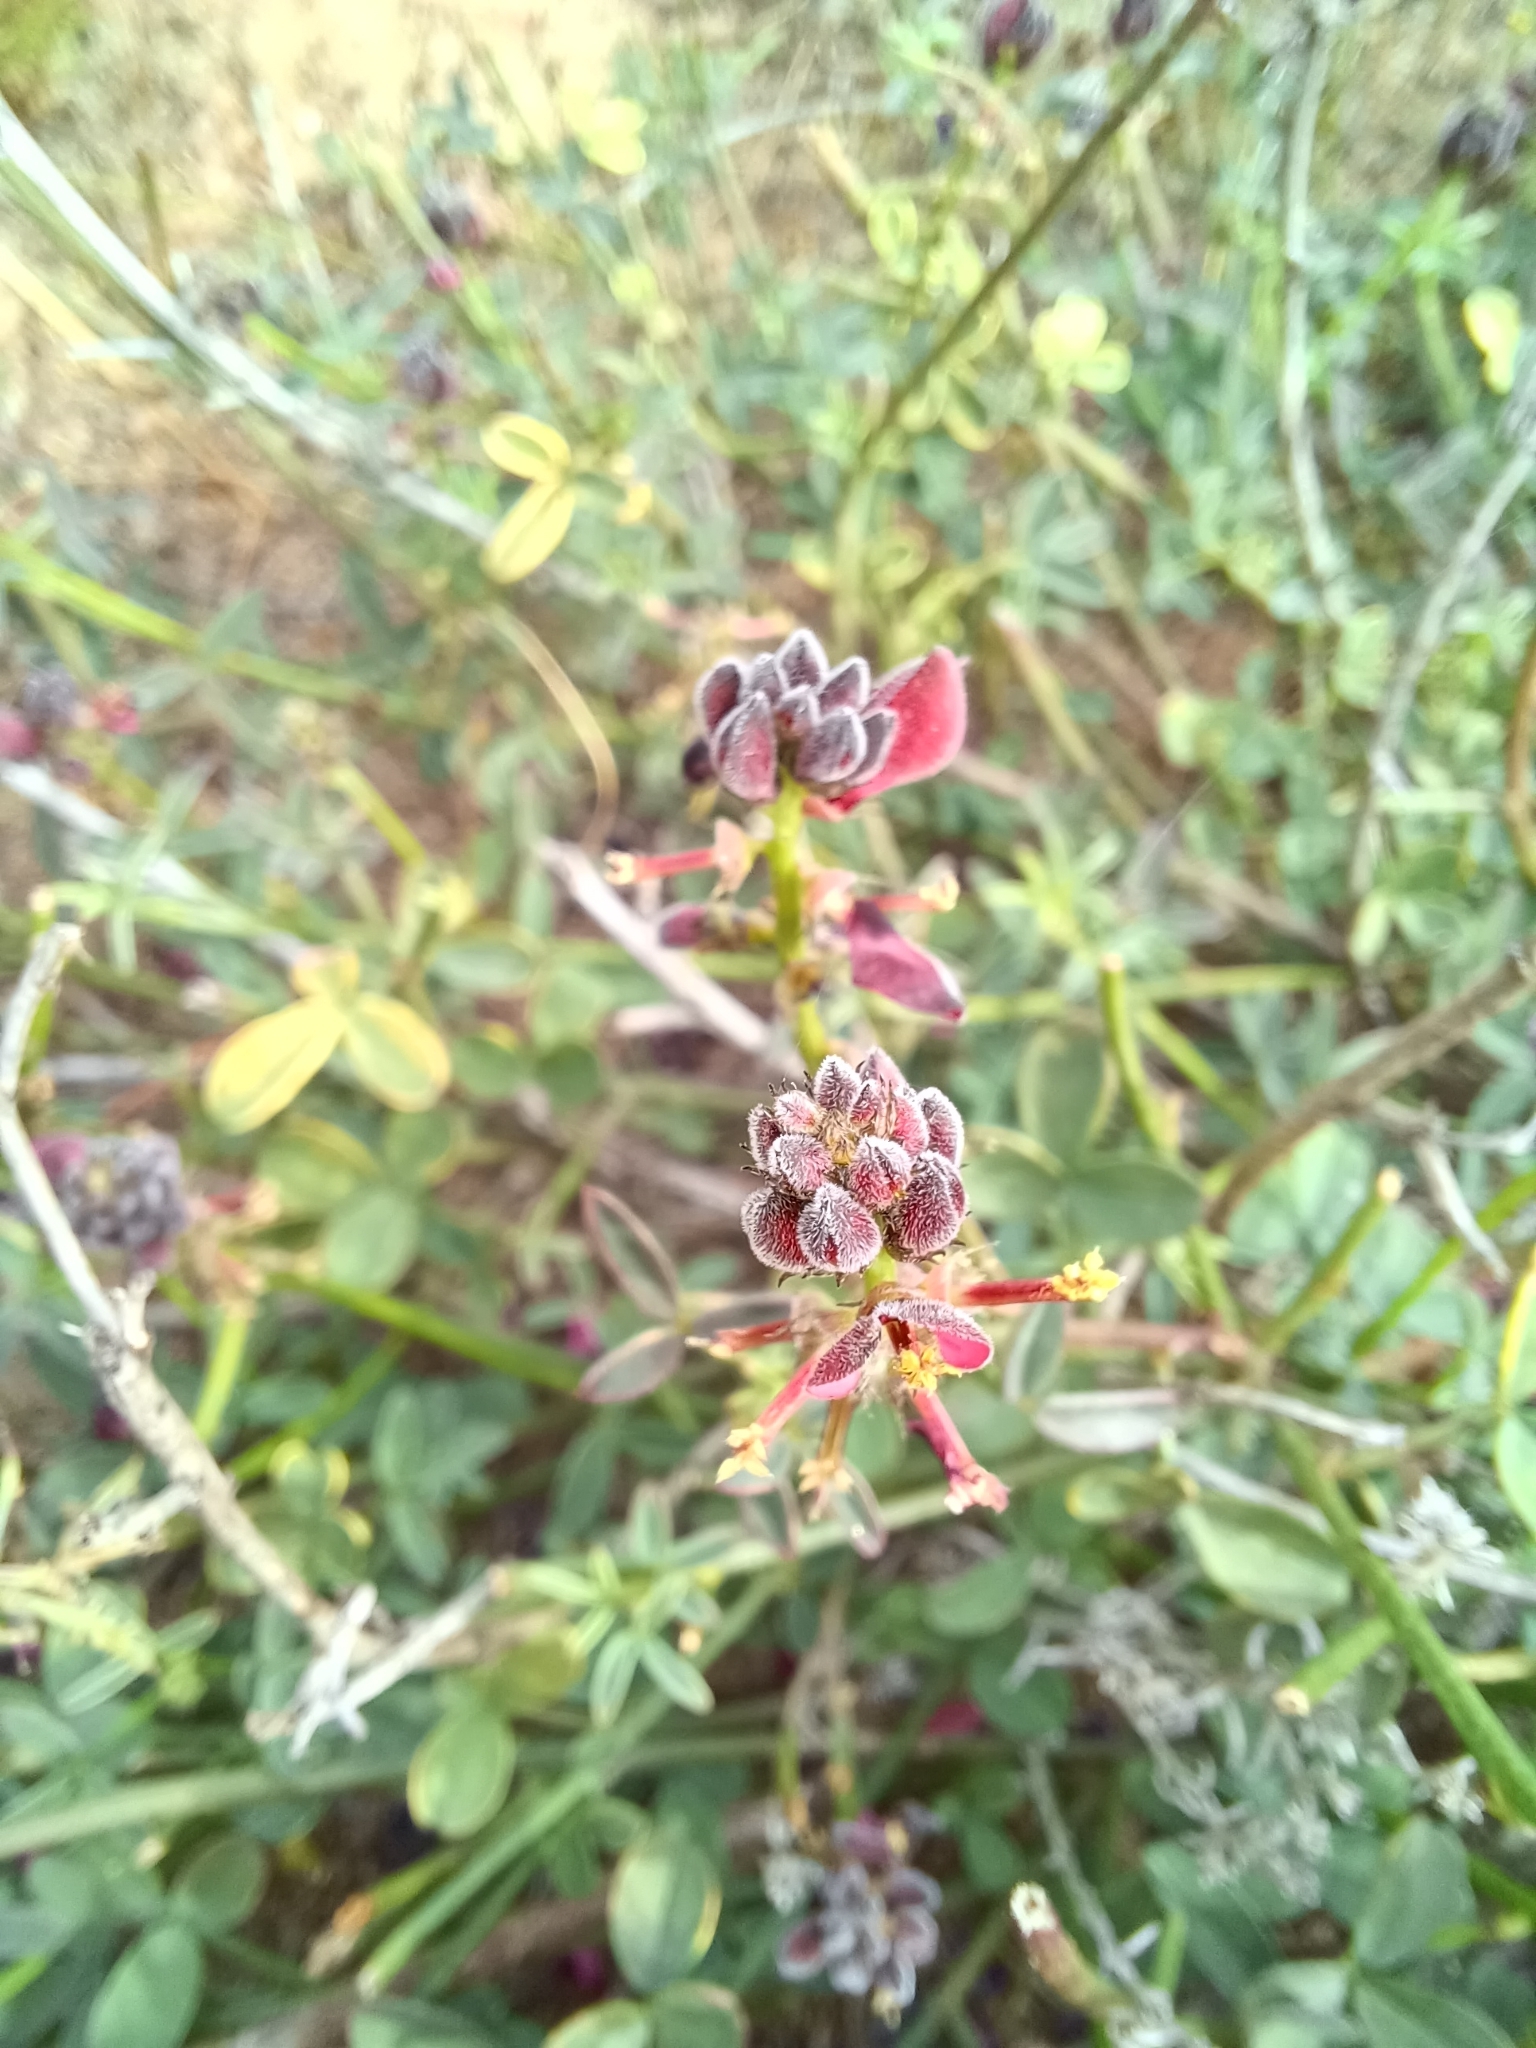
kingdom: Plantae
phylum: Tracheophyta
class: Magnoliopsida
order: Fabales
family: Fabaceae
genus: Indigofera
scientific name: Indigofera heterophylla
